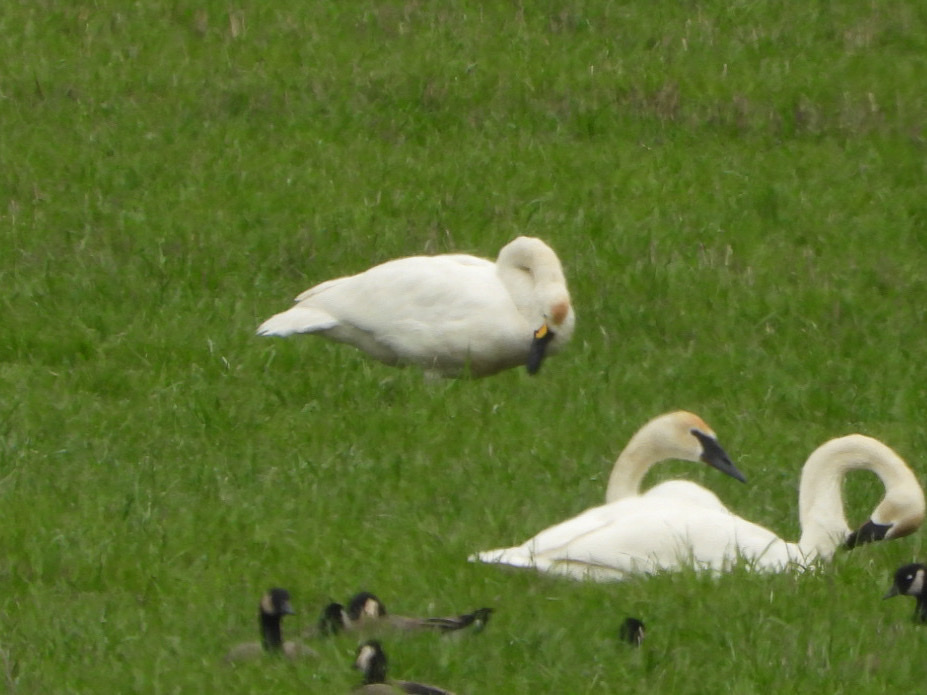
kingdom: Animalia
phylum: Chordata
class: Aves
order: Anseriformes
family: Anatidae
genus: Cygnus
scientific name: Cygnus columbianus
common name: Tundra swan
